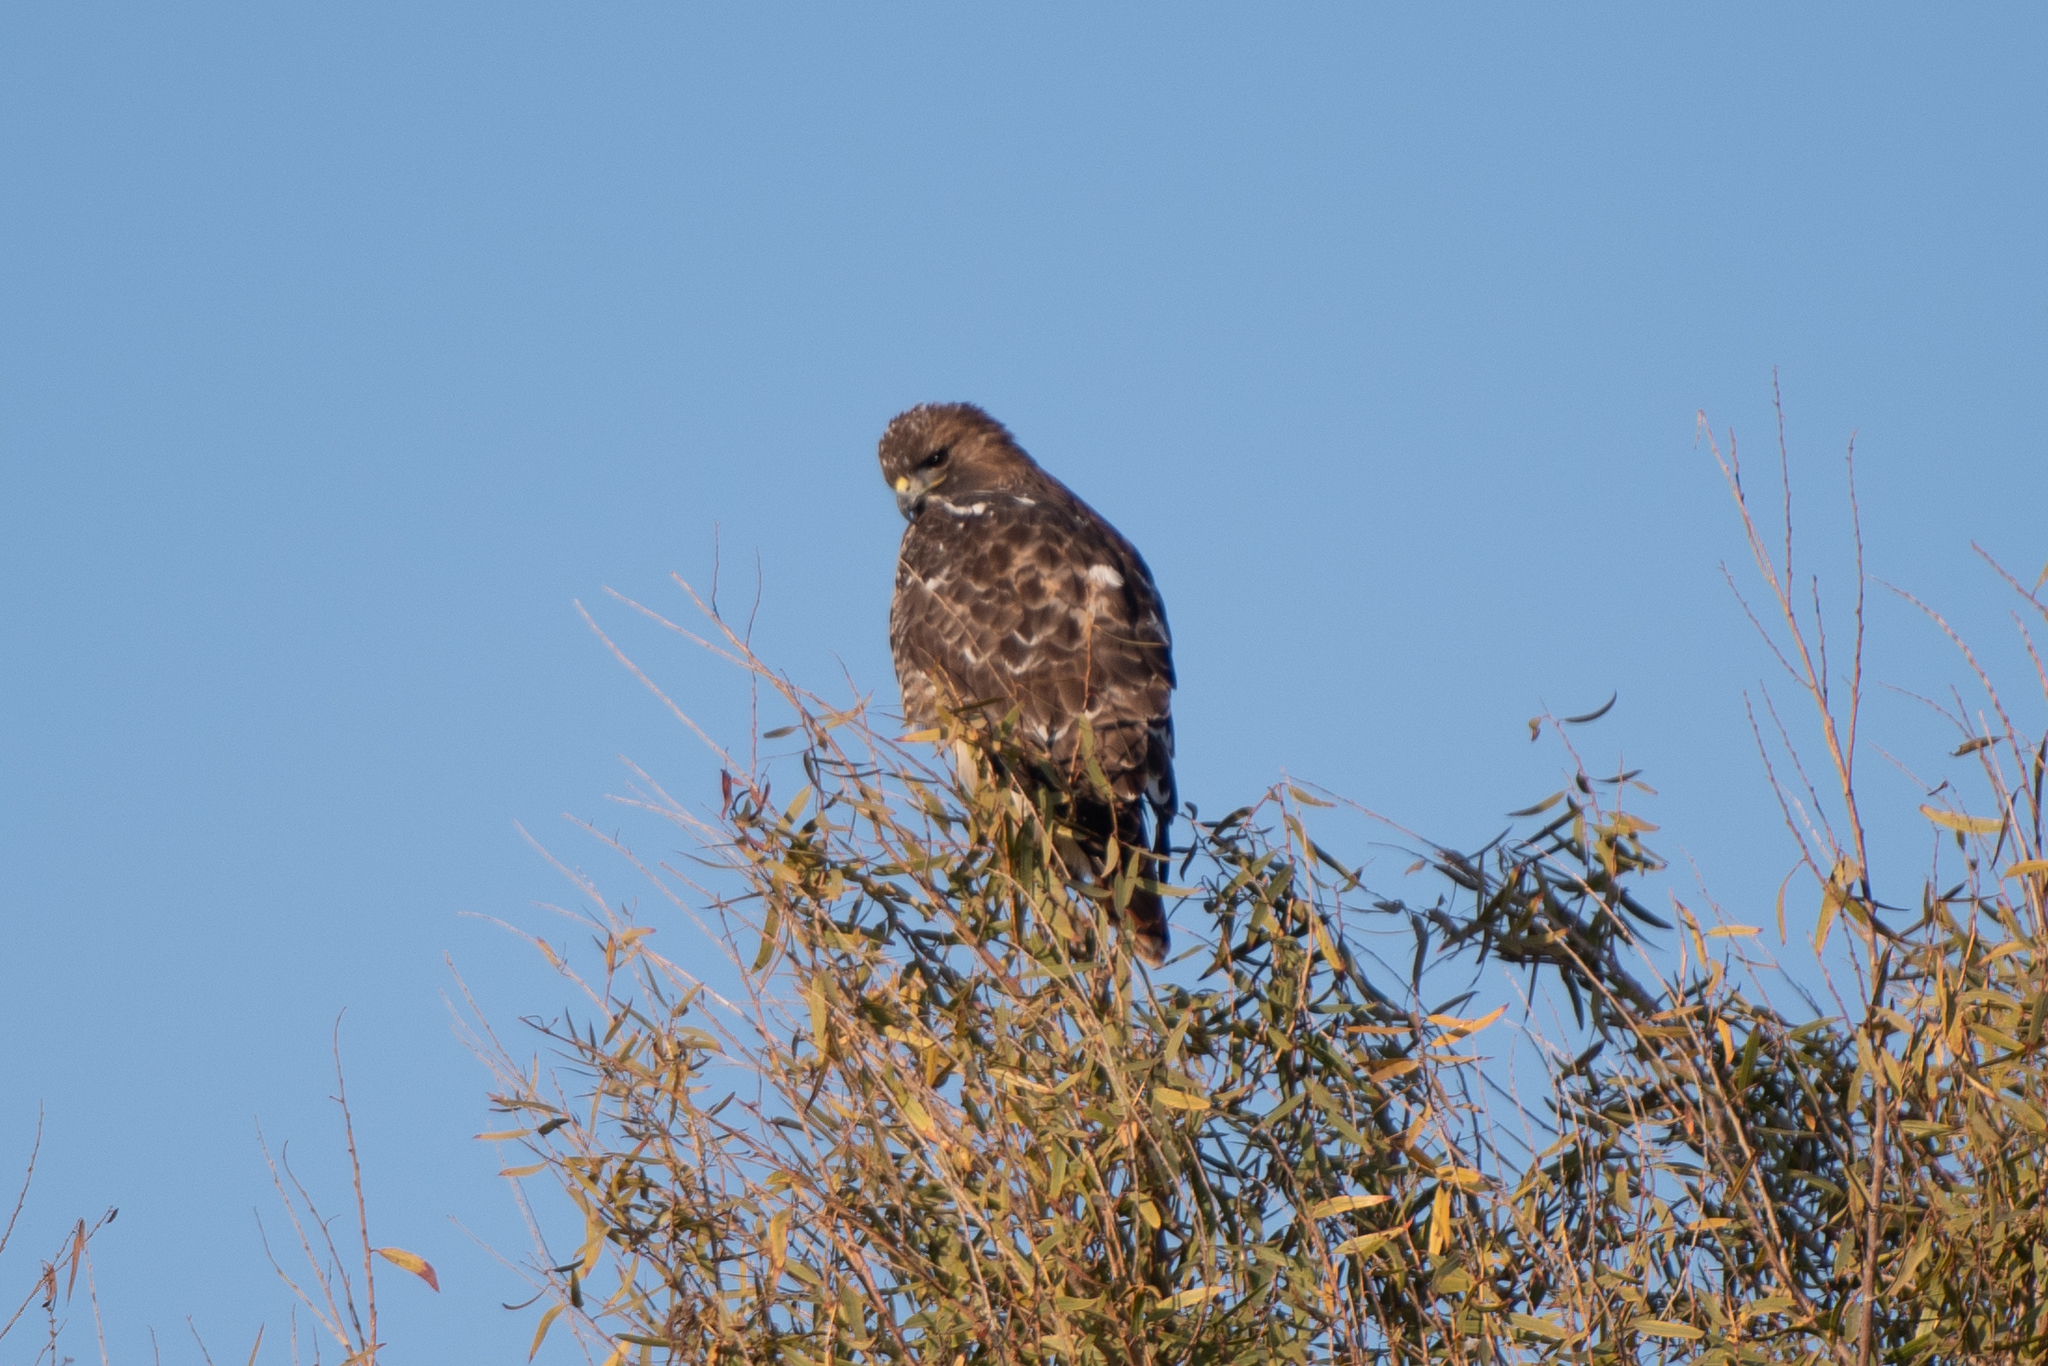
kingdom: Animalia
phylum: Chordata
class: Aves
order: Accipitriformes
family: Accipitridae
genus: Buteo
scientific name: Buteo jamaicensis
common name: Red-tailed hawk
